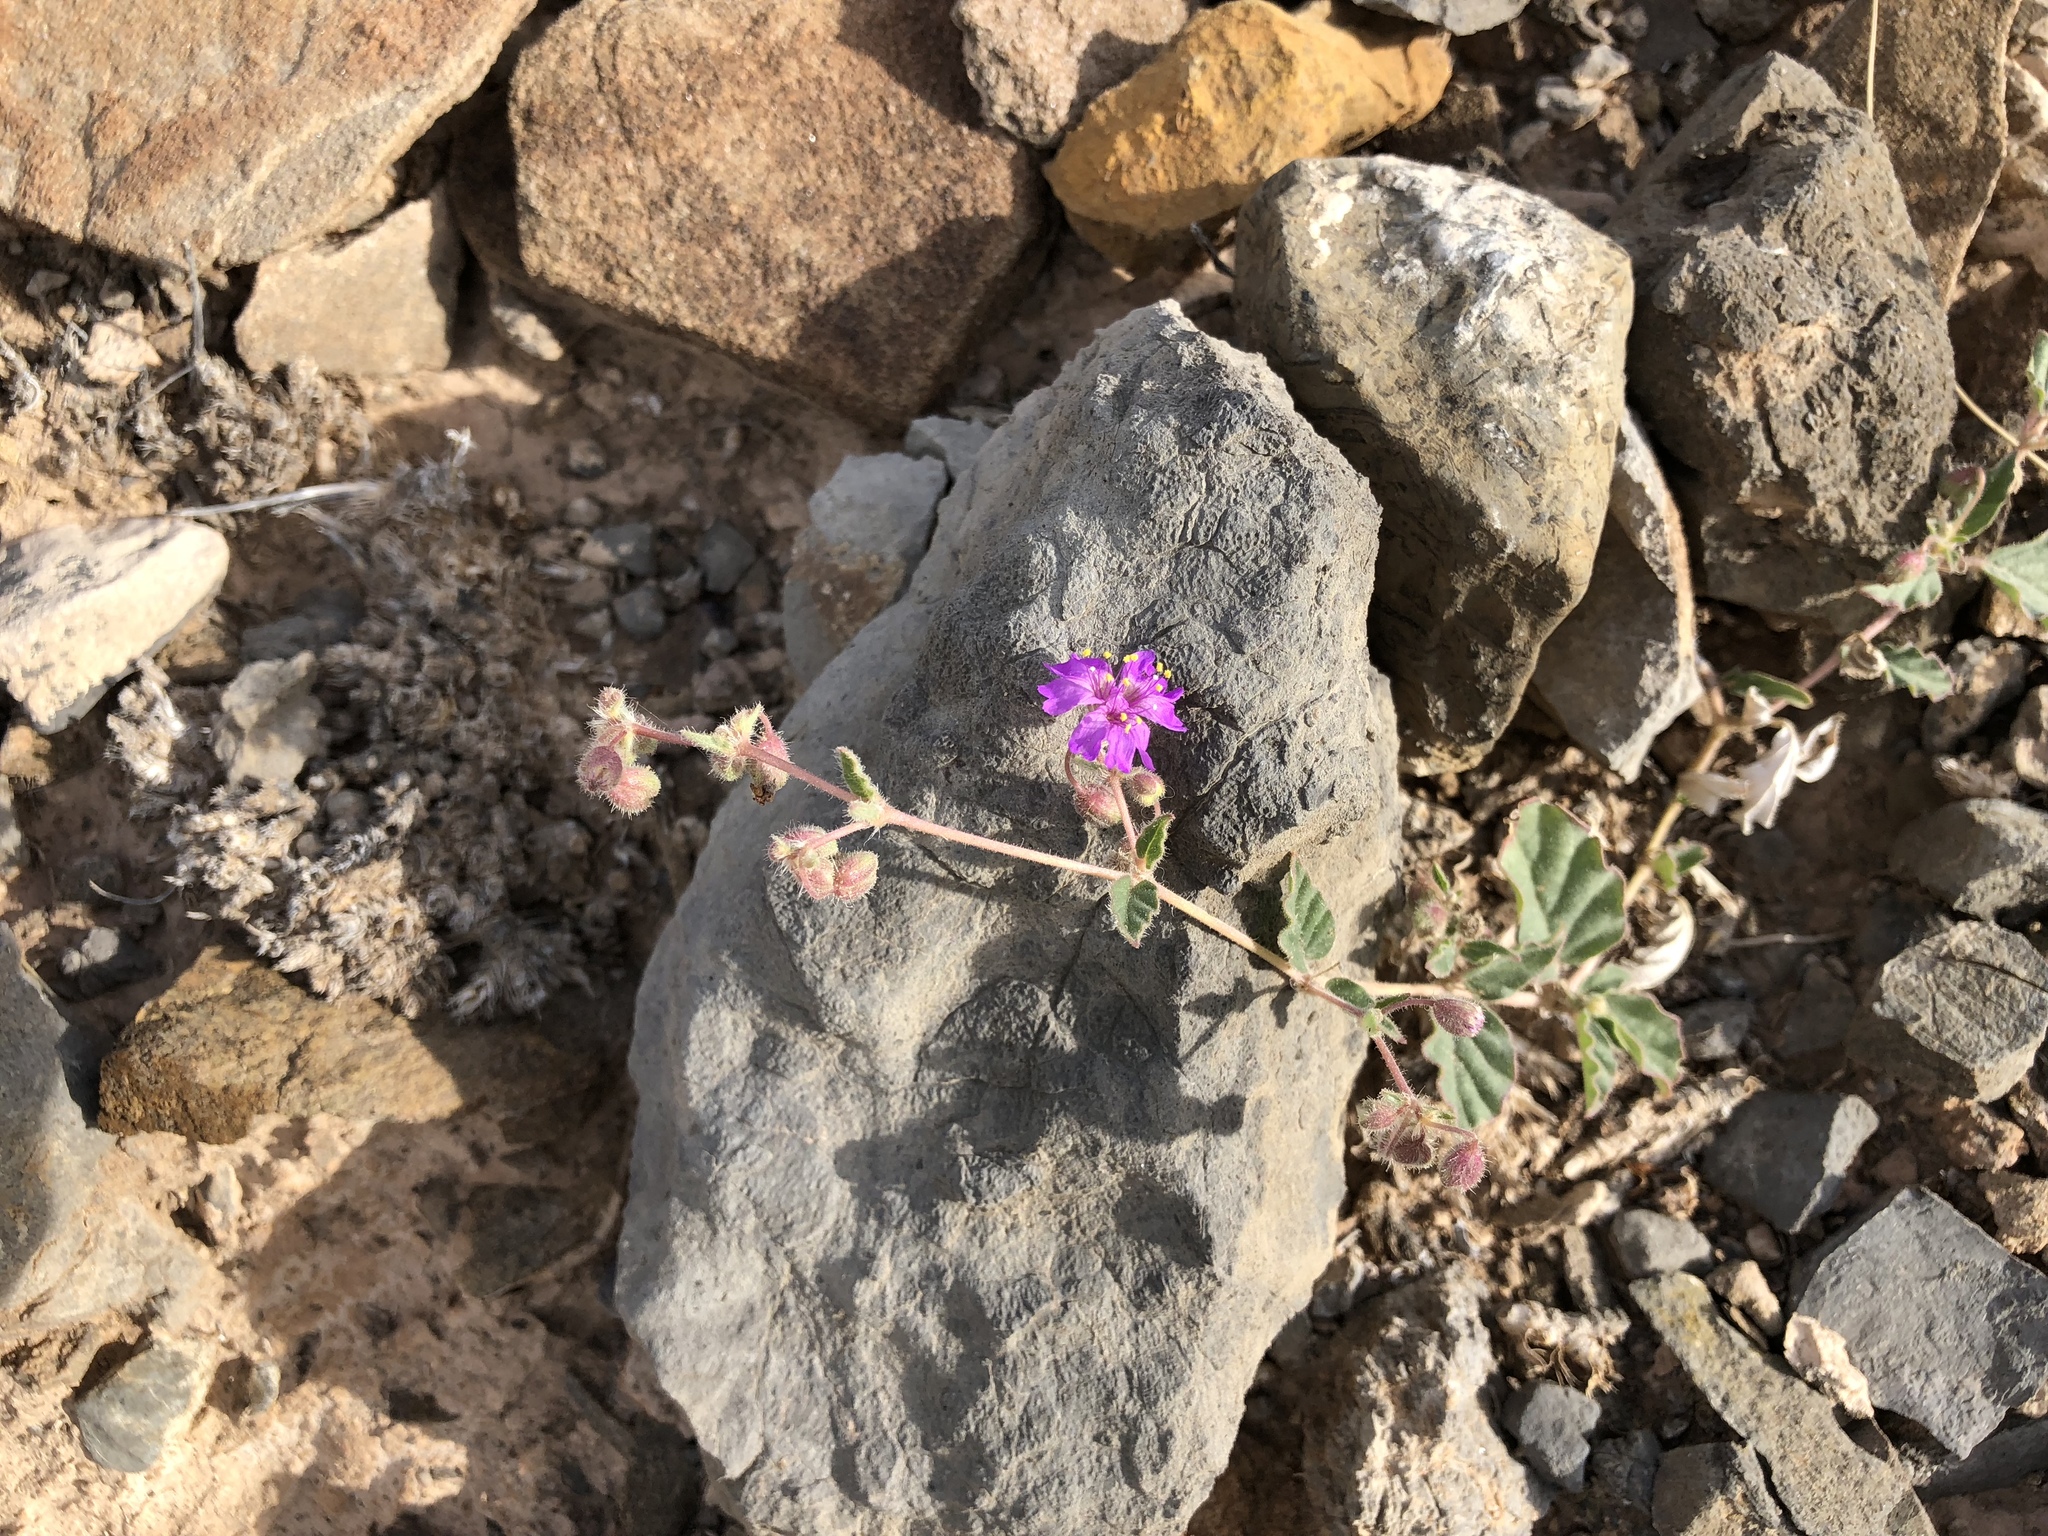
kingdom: Plantae
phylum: Tracheophyta
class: Magnoliopsida
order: Caryophyllales
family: Nyctaginaceae
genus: Allionia
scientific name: Allionia incarnata
